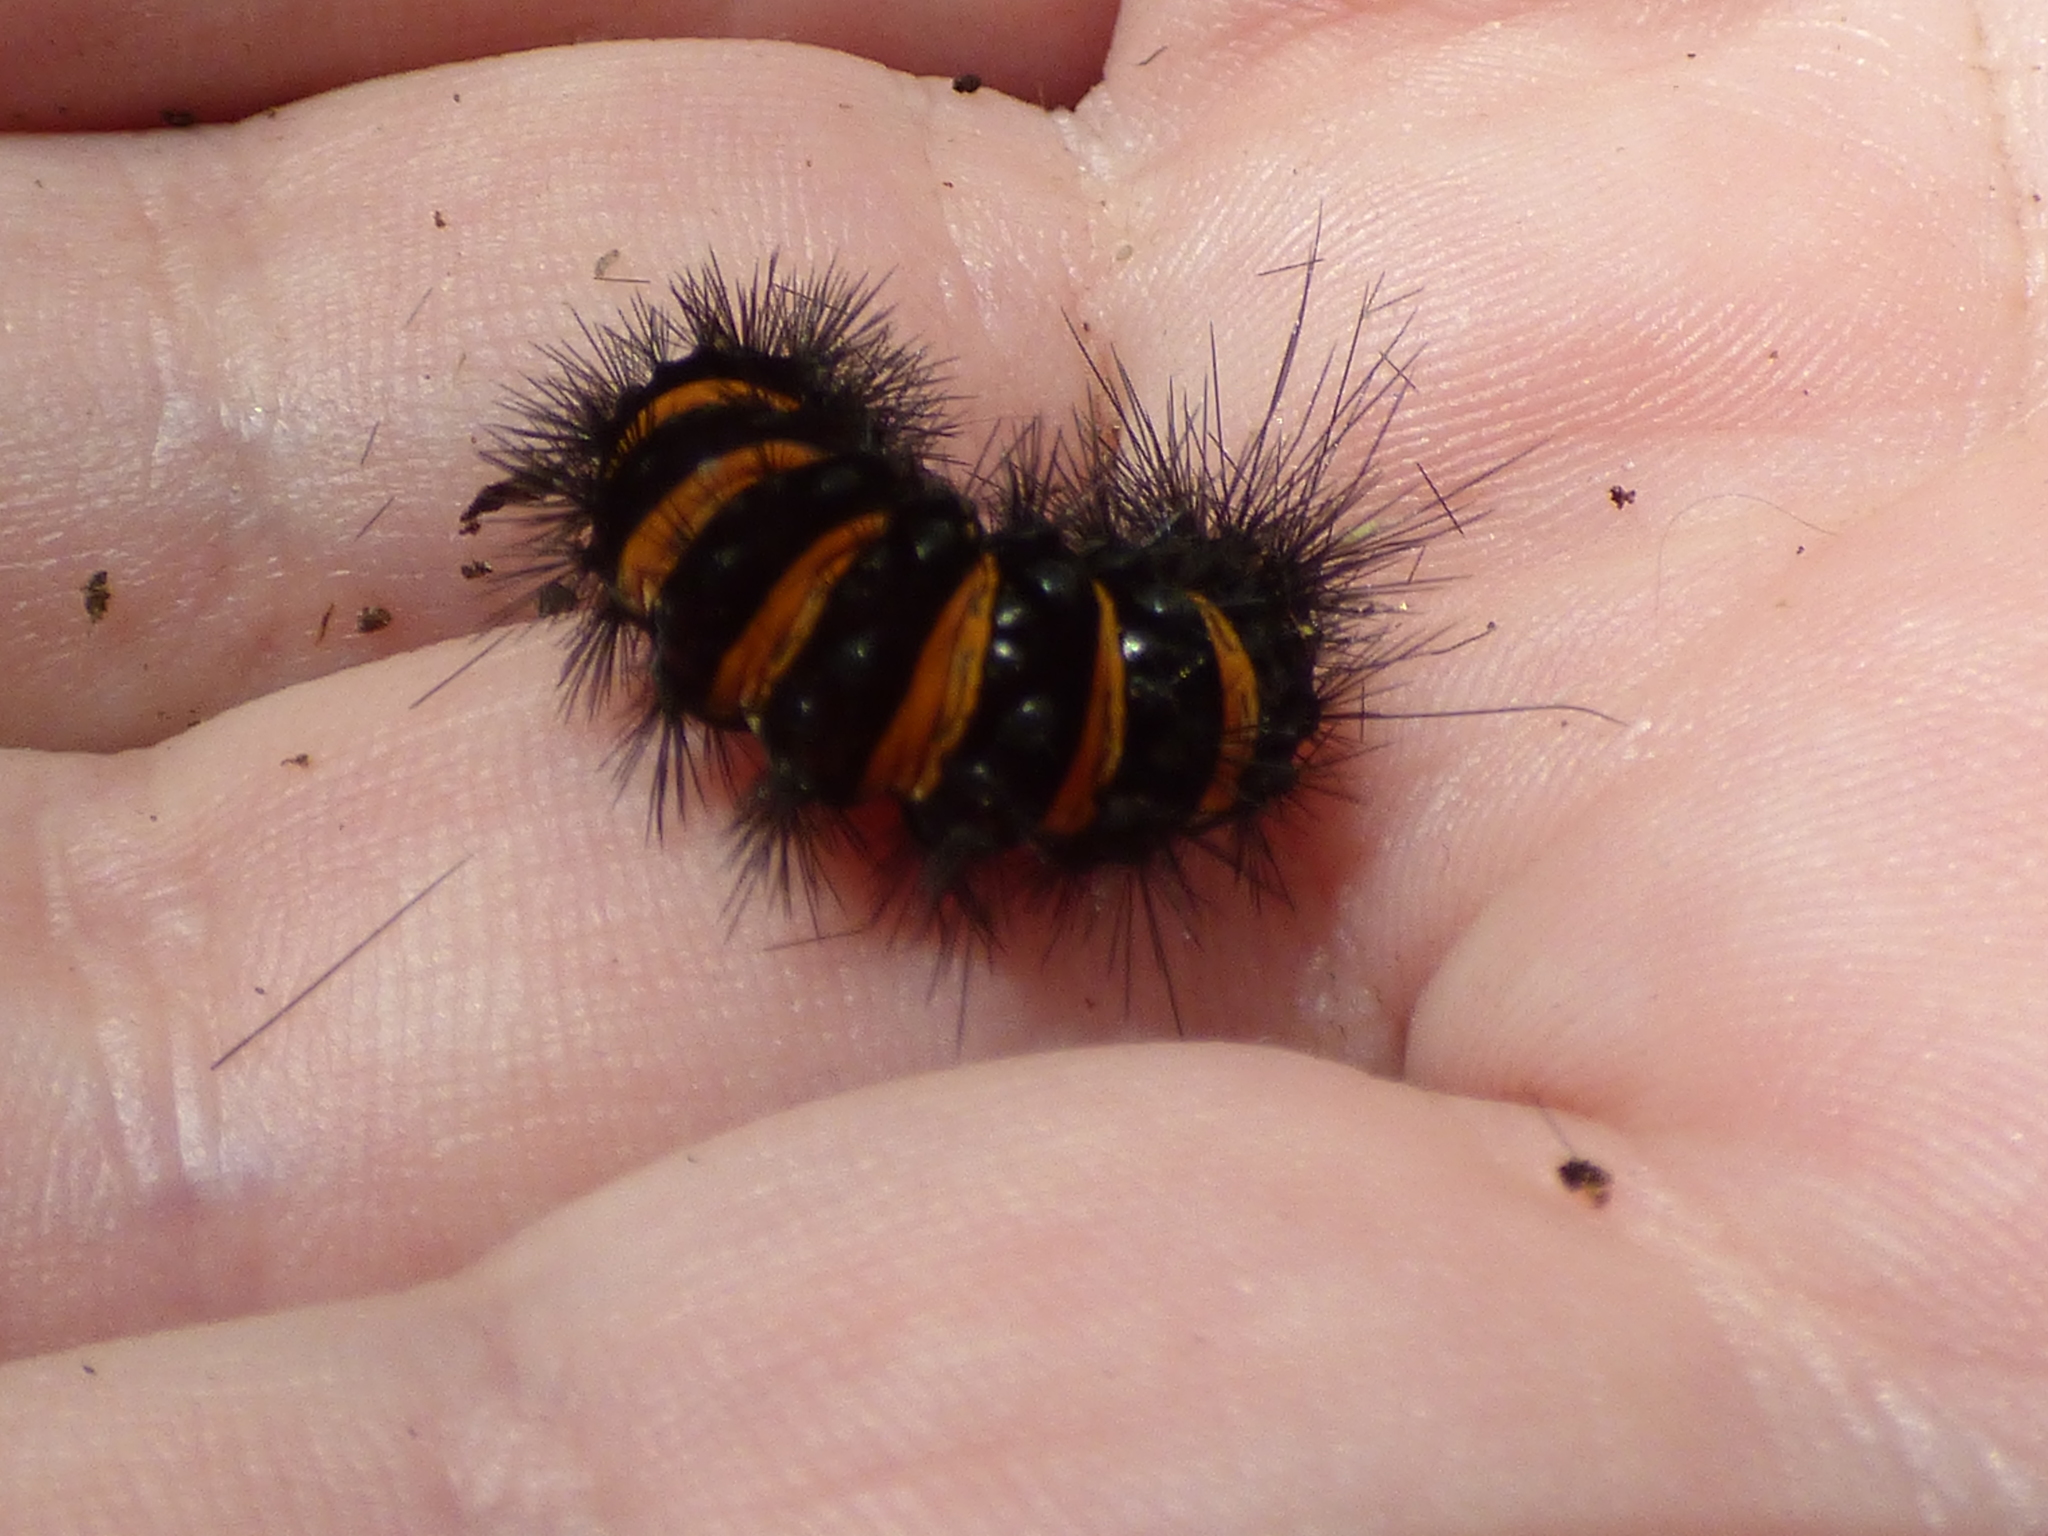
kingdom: Animalia
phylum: Arthropoda
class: Insecta
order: Lepidoptera
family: Erebidae
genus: Spilosoma
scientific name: Spilosoma congrua
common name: Agreeable tiger moth
